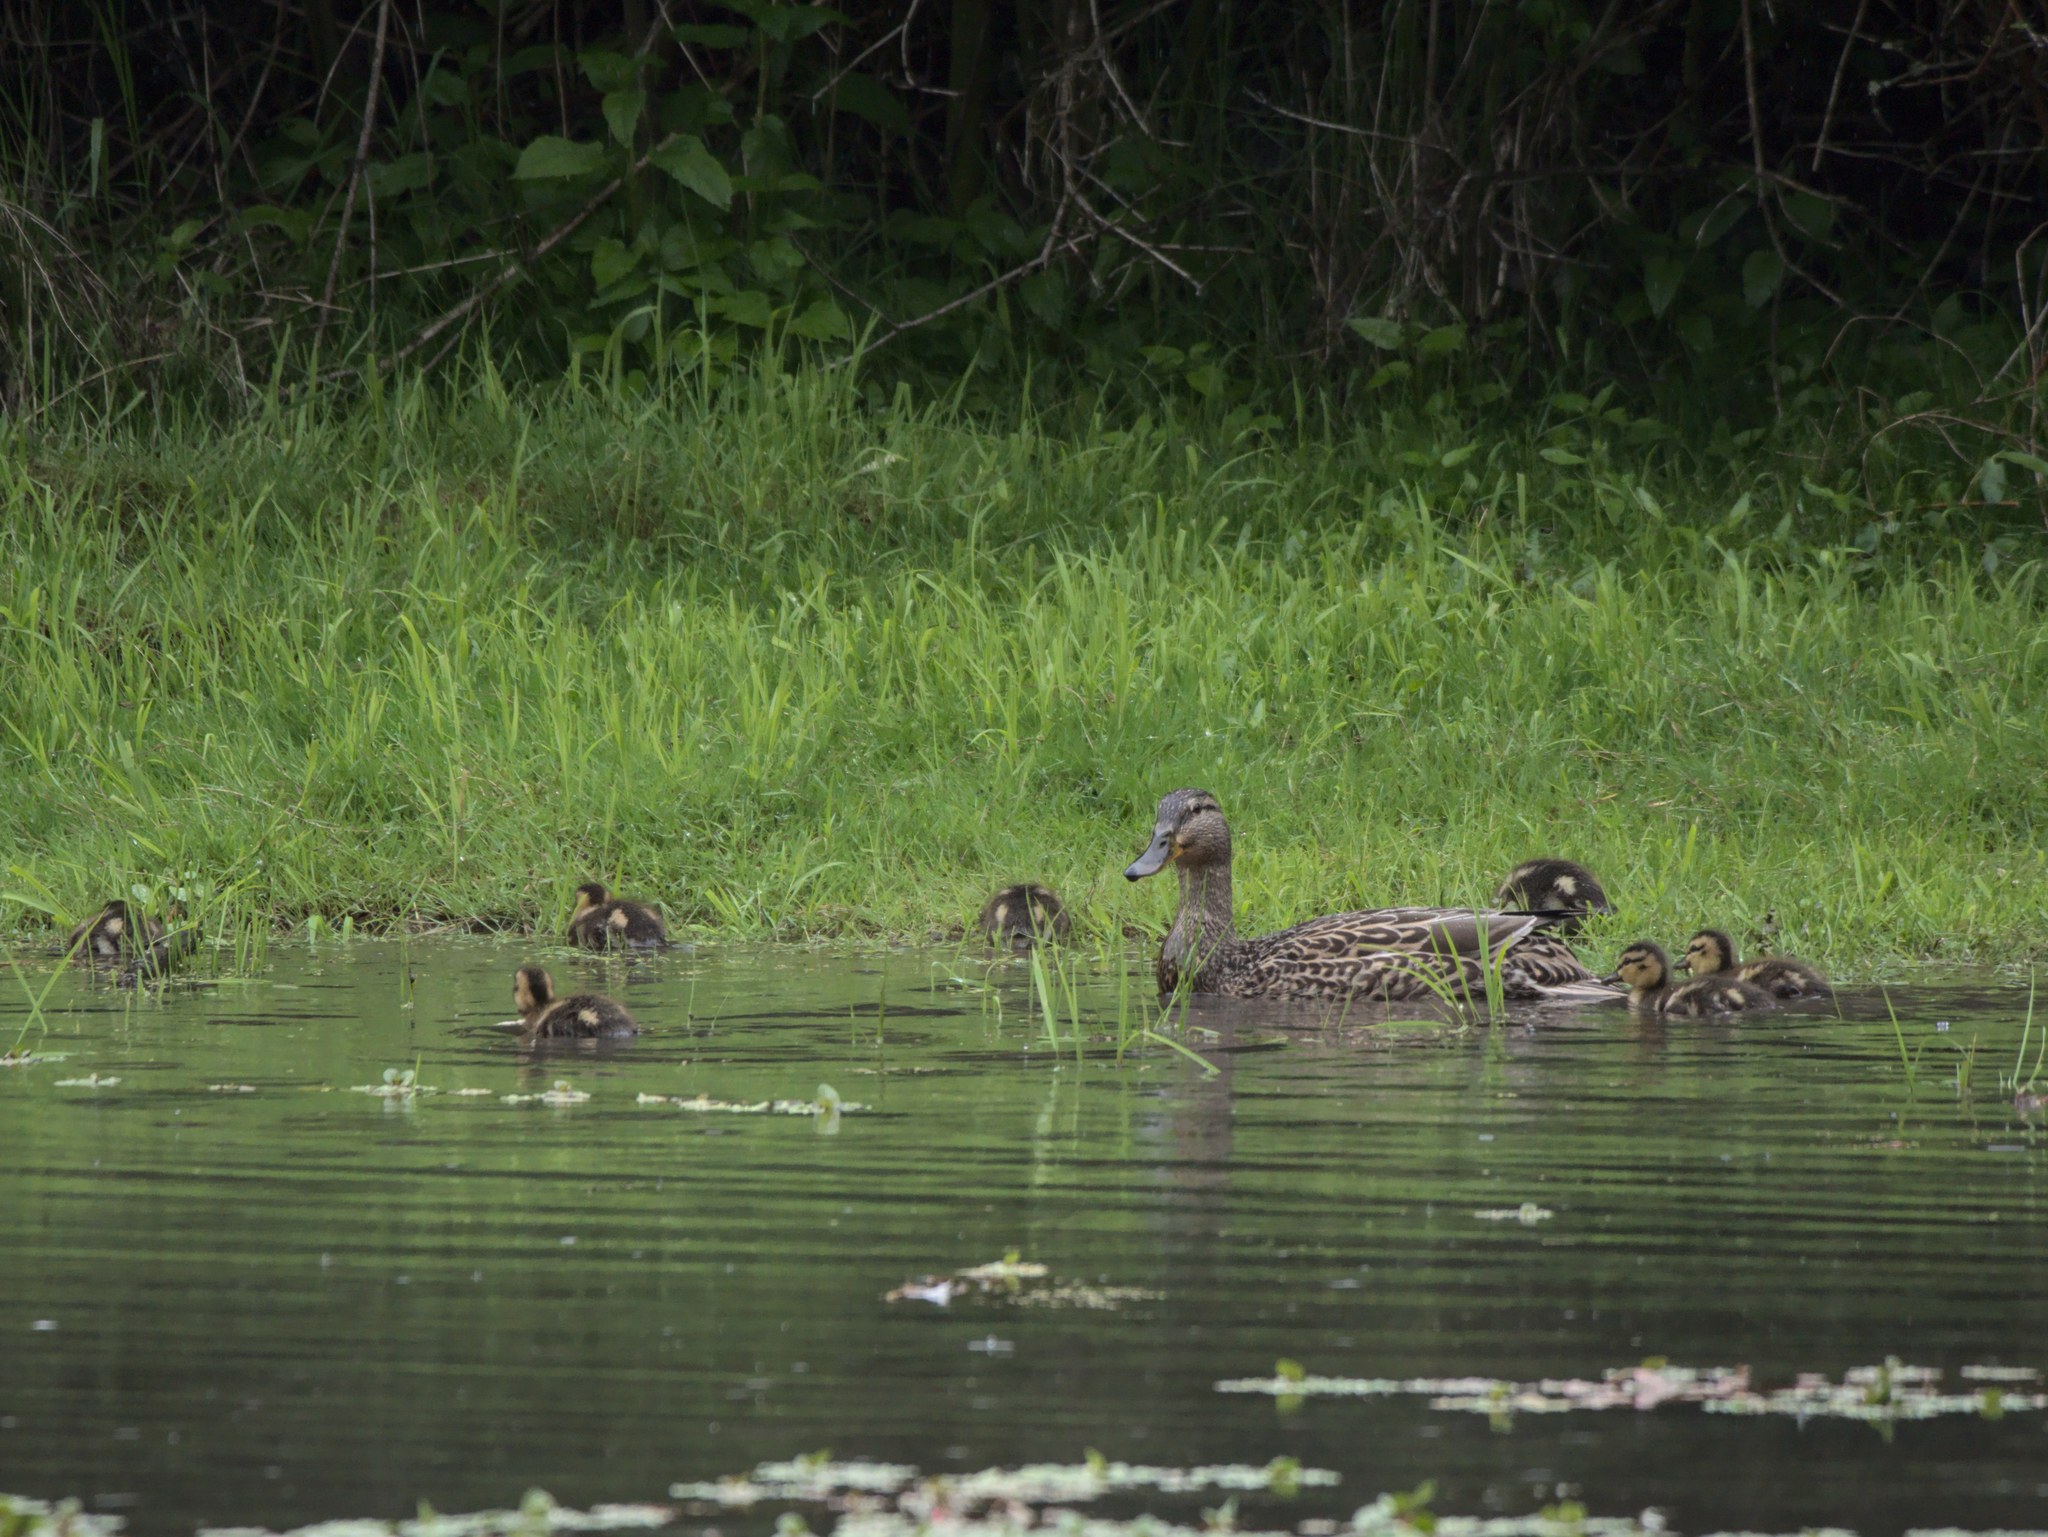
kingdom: Animalia
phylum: Chordata
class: Aves
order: Anseriformes
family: Anatidae
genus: Anas
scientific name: Anas platyrhynchos
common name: Mallard
